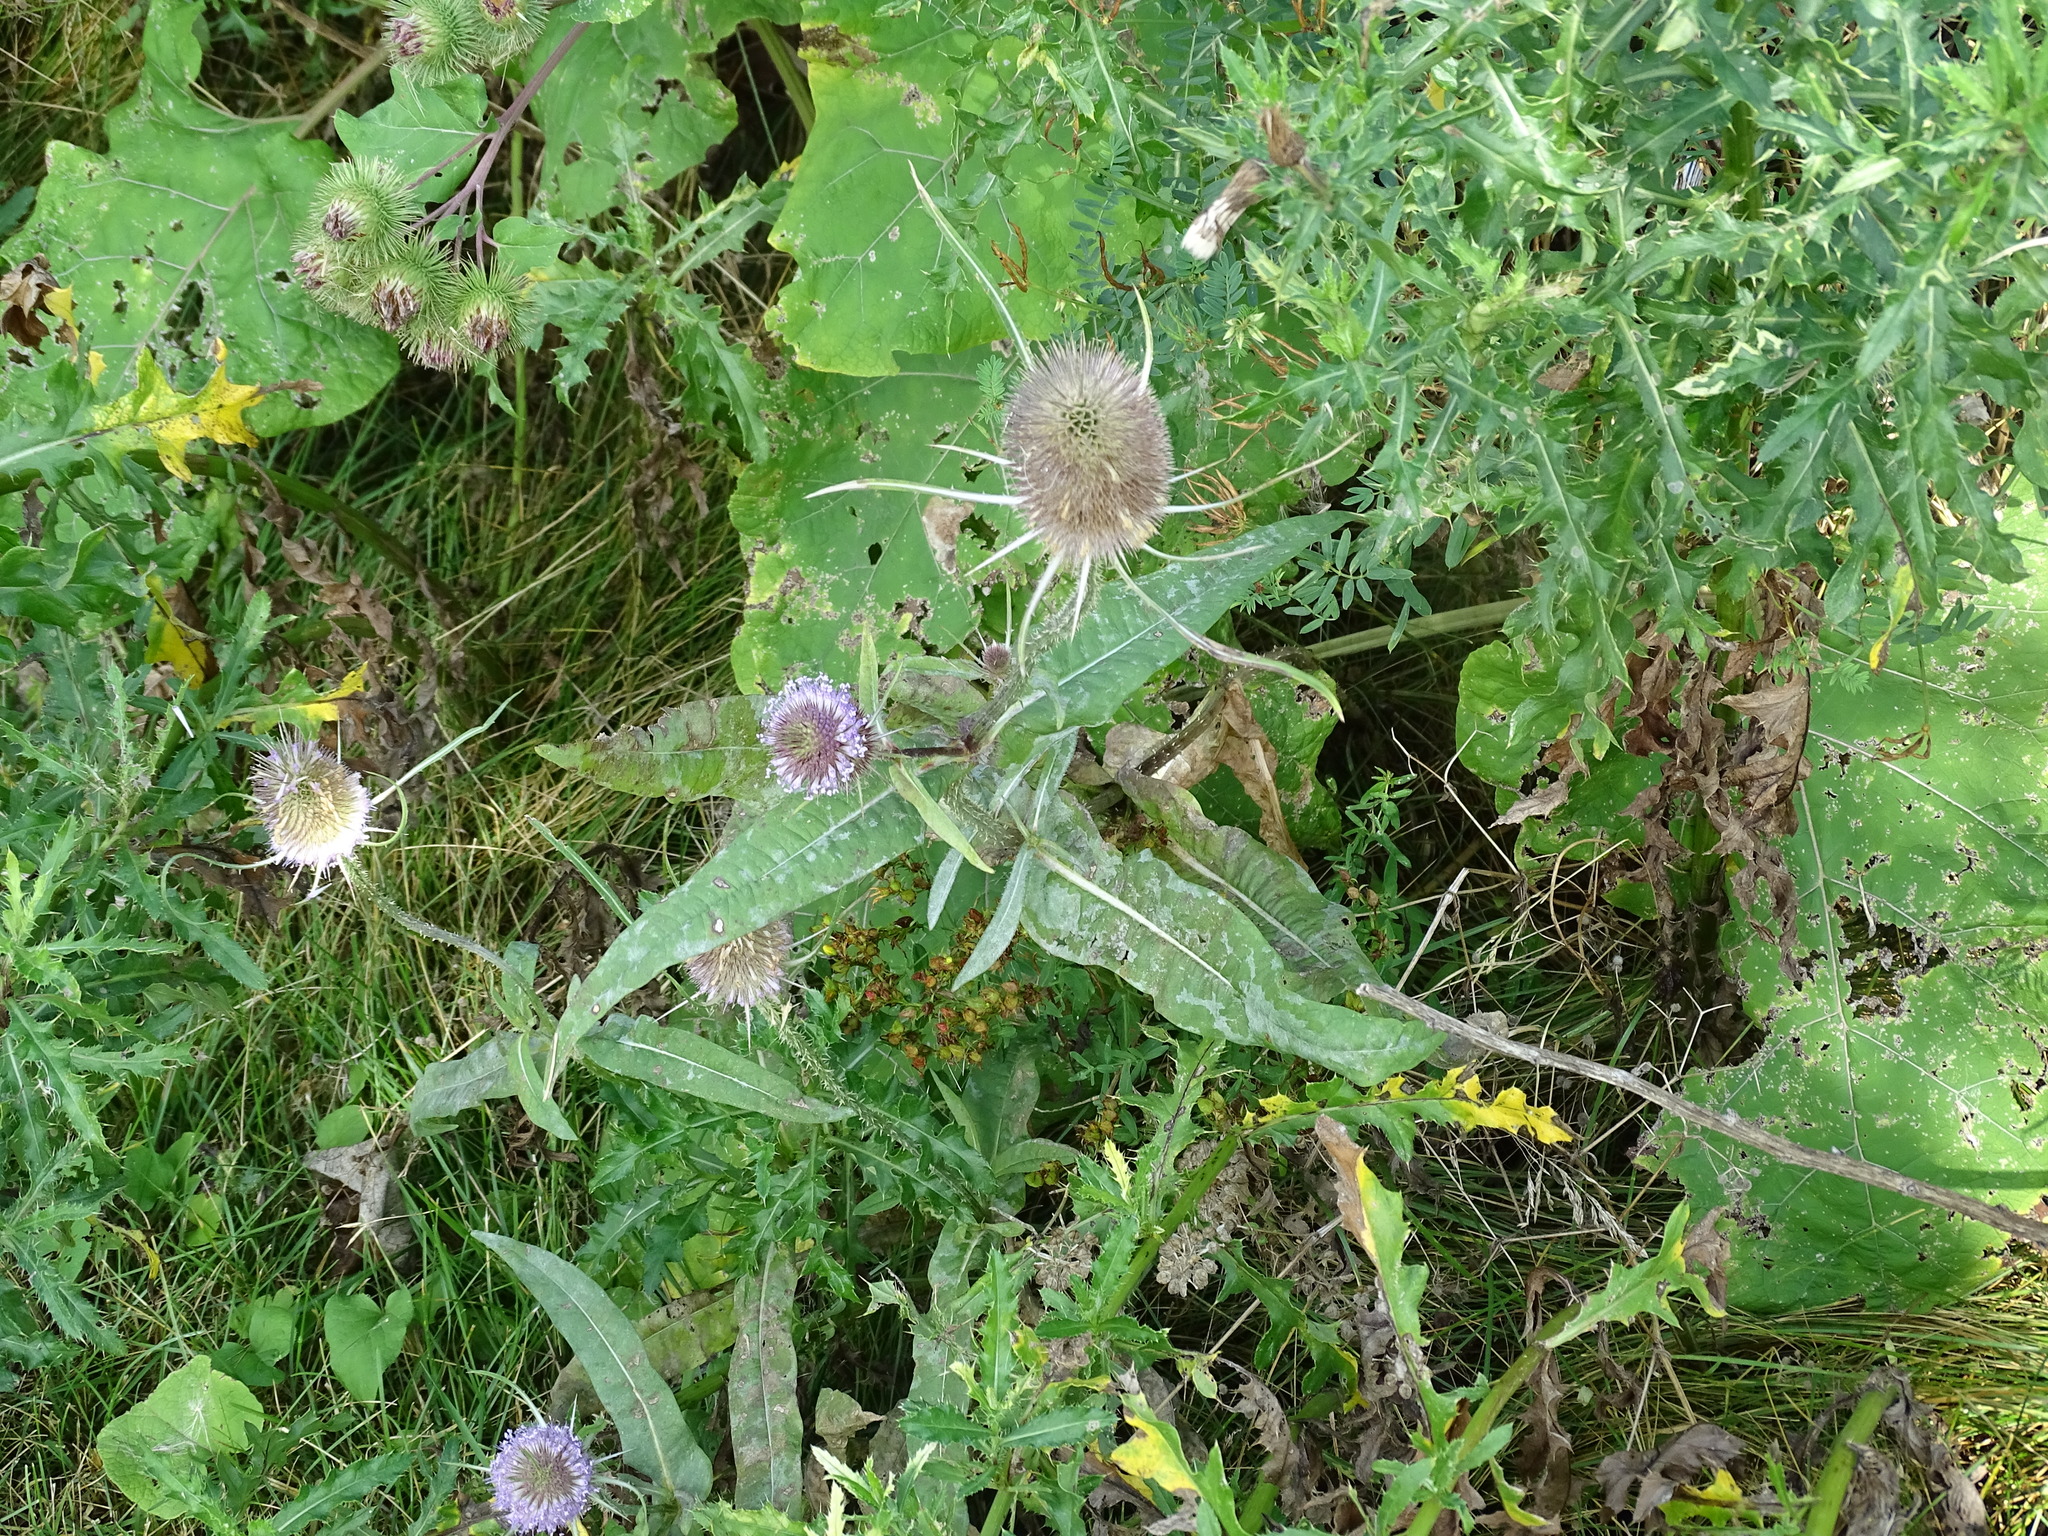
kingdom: Plantae
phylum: Tracheophyta
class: Magnoliopsida
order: Dipsacales
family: Caprifoliaceae
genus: Dipsacus
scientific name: Dipsacus fullonum
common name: Teasel
